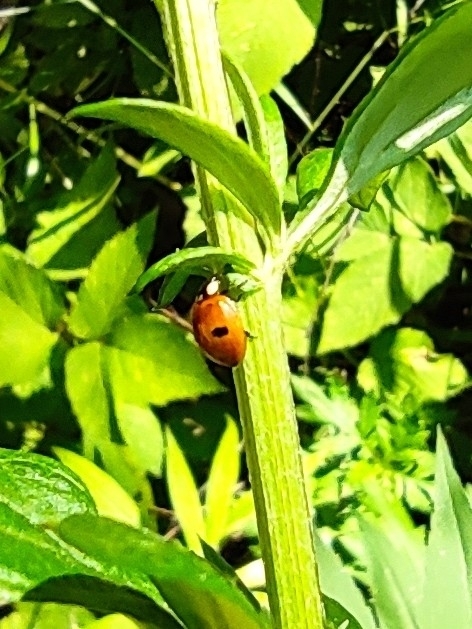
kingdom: Animalia
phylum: Arthropoda
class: Insecta
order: Coleoptera
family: Coccinellidae
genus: Adalia
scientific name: Adalia bipunctata
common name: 2-spot ladybird
